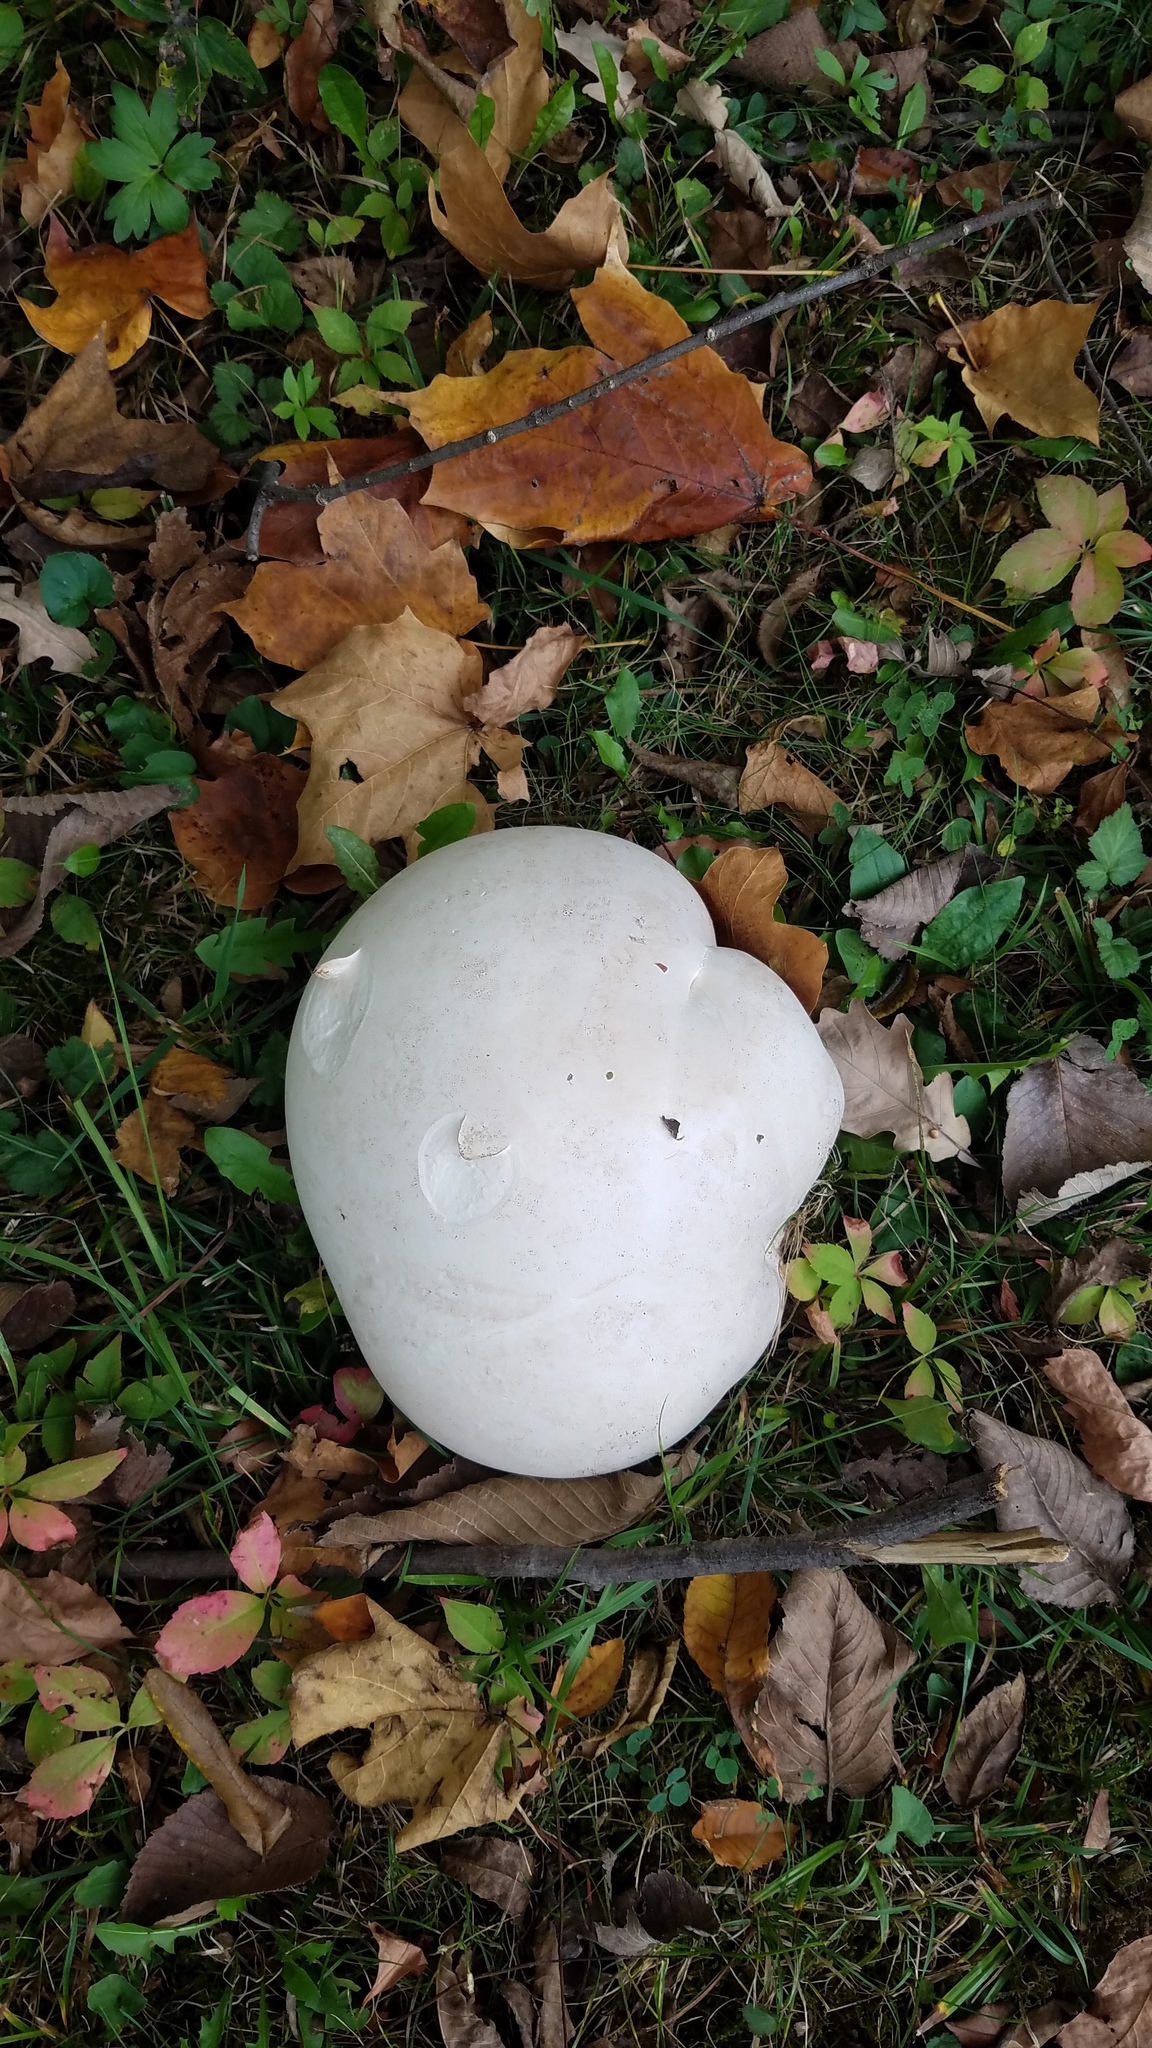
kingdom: Fungi
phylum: Basidiomycota
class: Agaricomycetes
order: Agaricales
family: Lycoperdaceae
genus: Calvatia
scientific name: Calvatia gigantea
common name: Giant puffball
